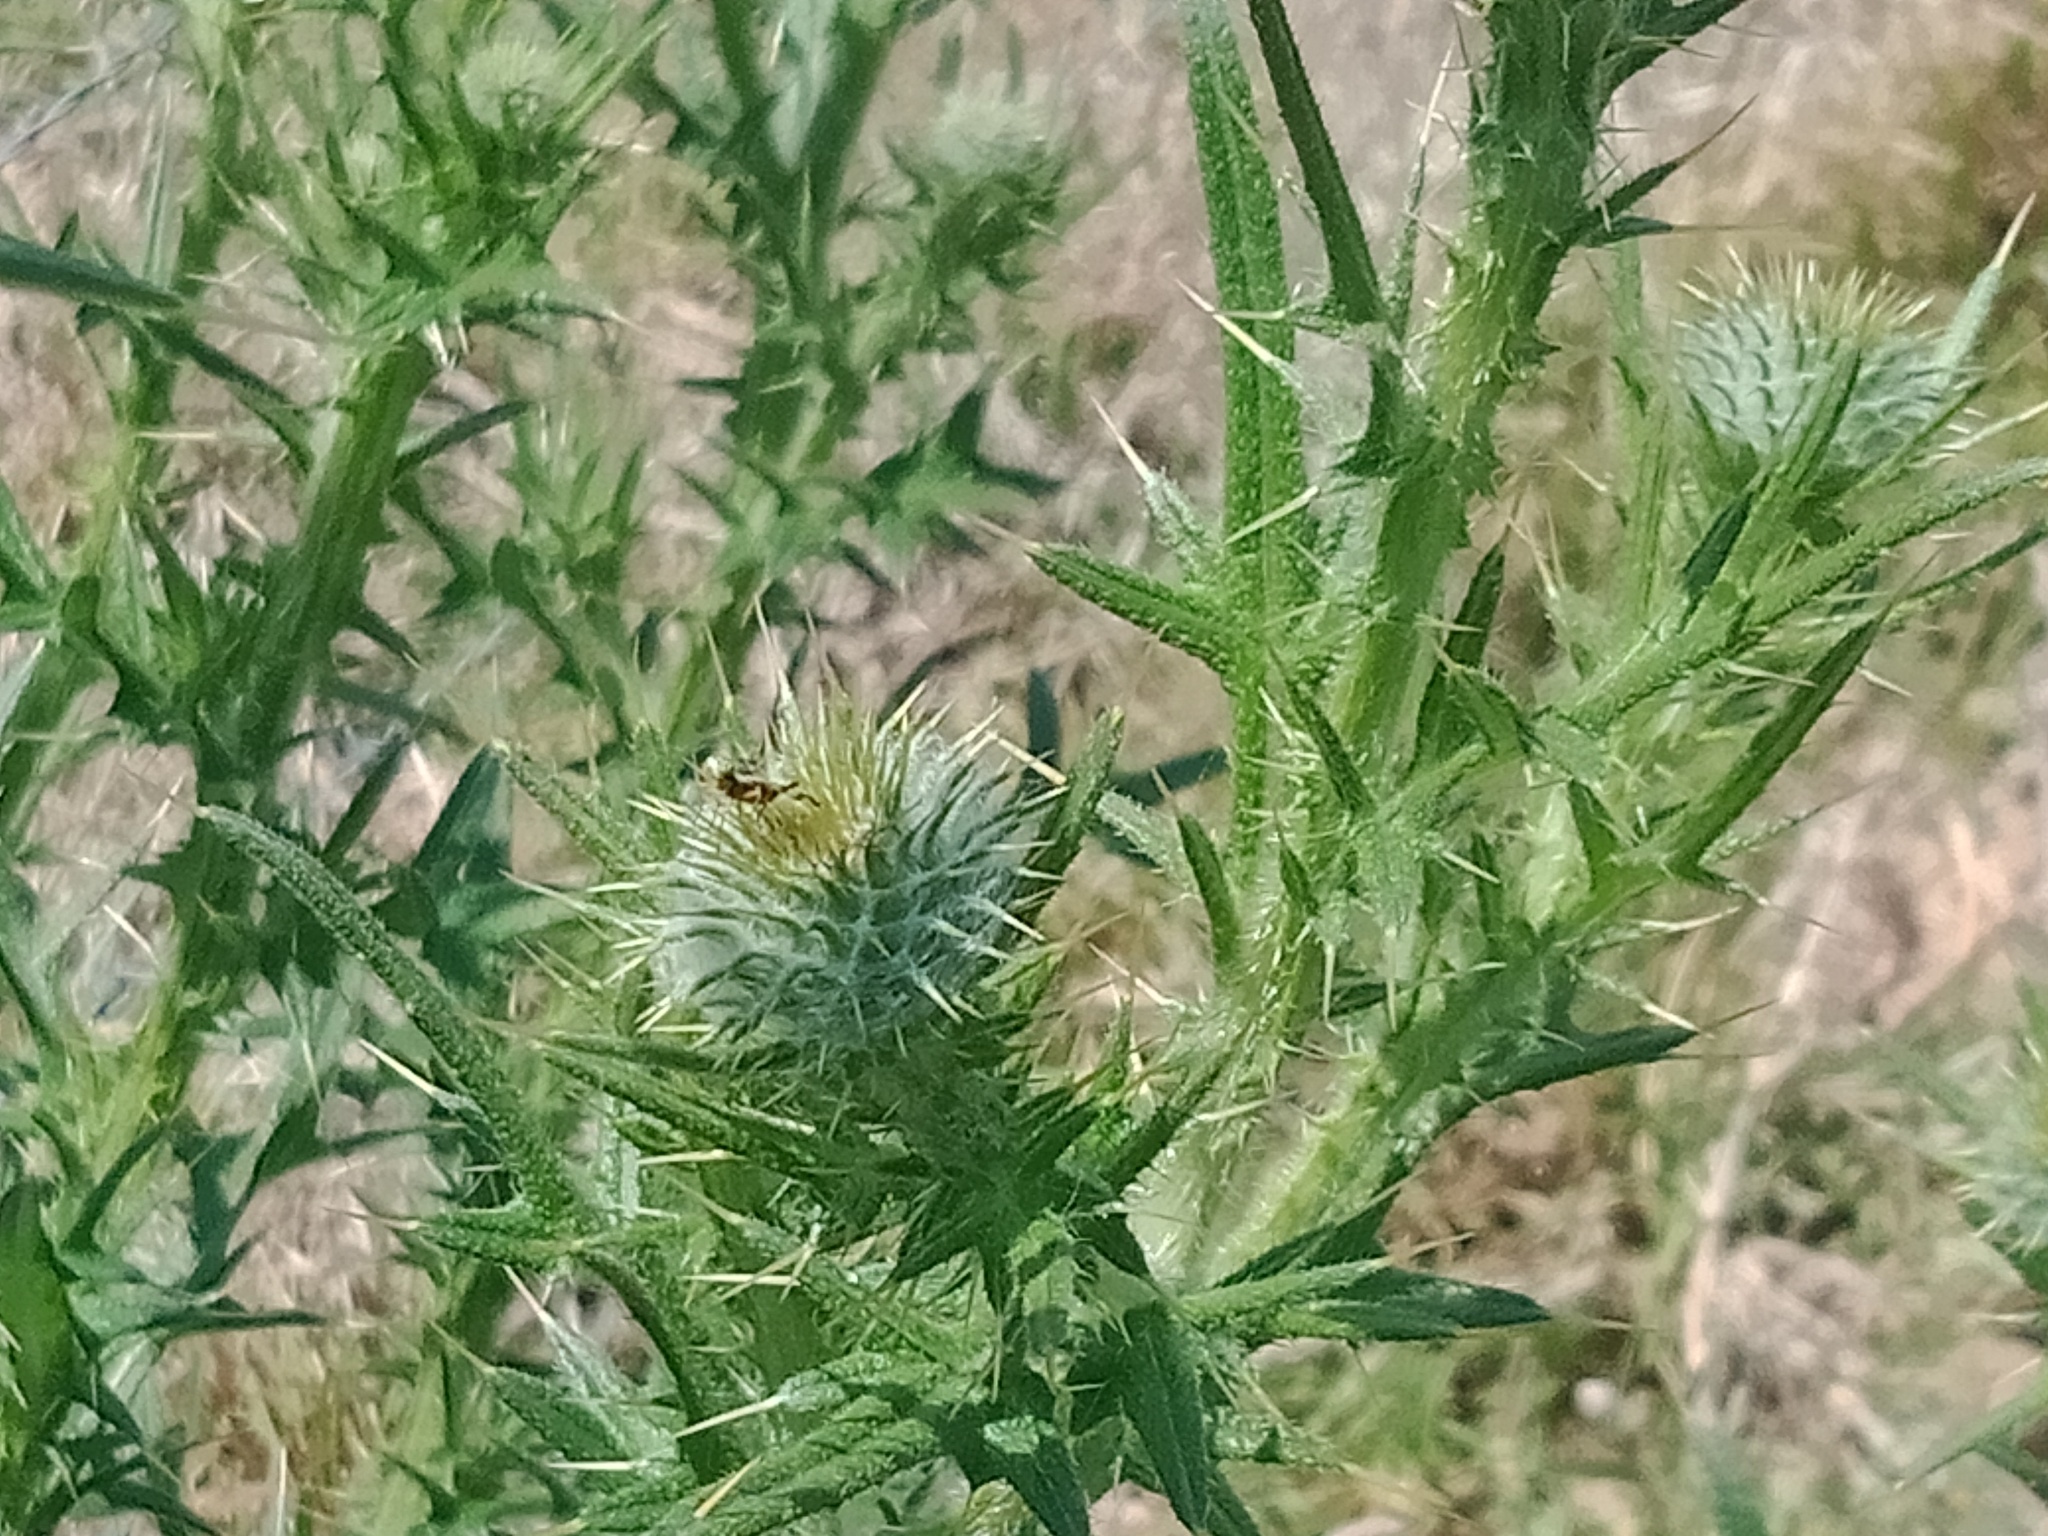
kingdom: Plantae
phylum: Tracheophyta
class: Magnoliopsida
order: Asterales
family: Asteraceae
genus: Cirsium
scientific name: Cirsium vulgare
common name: Bull thistle
